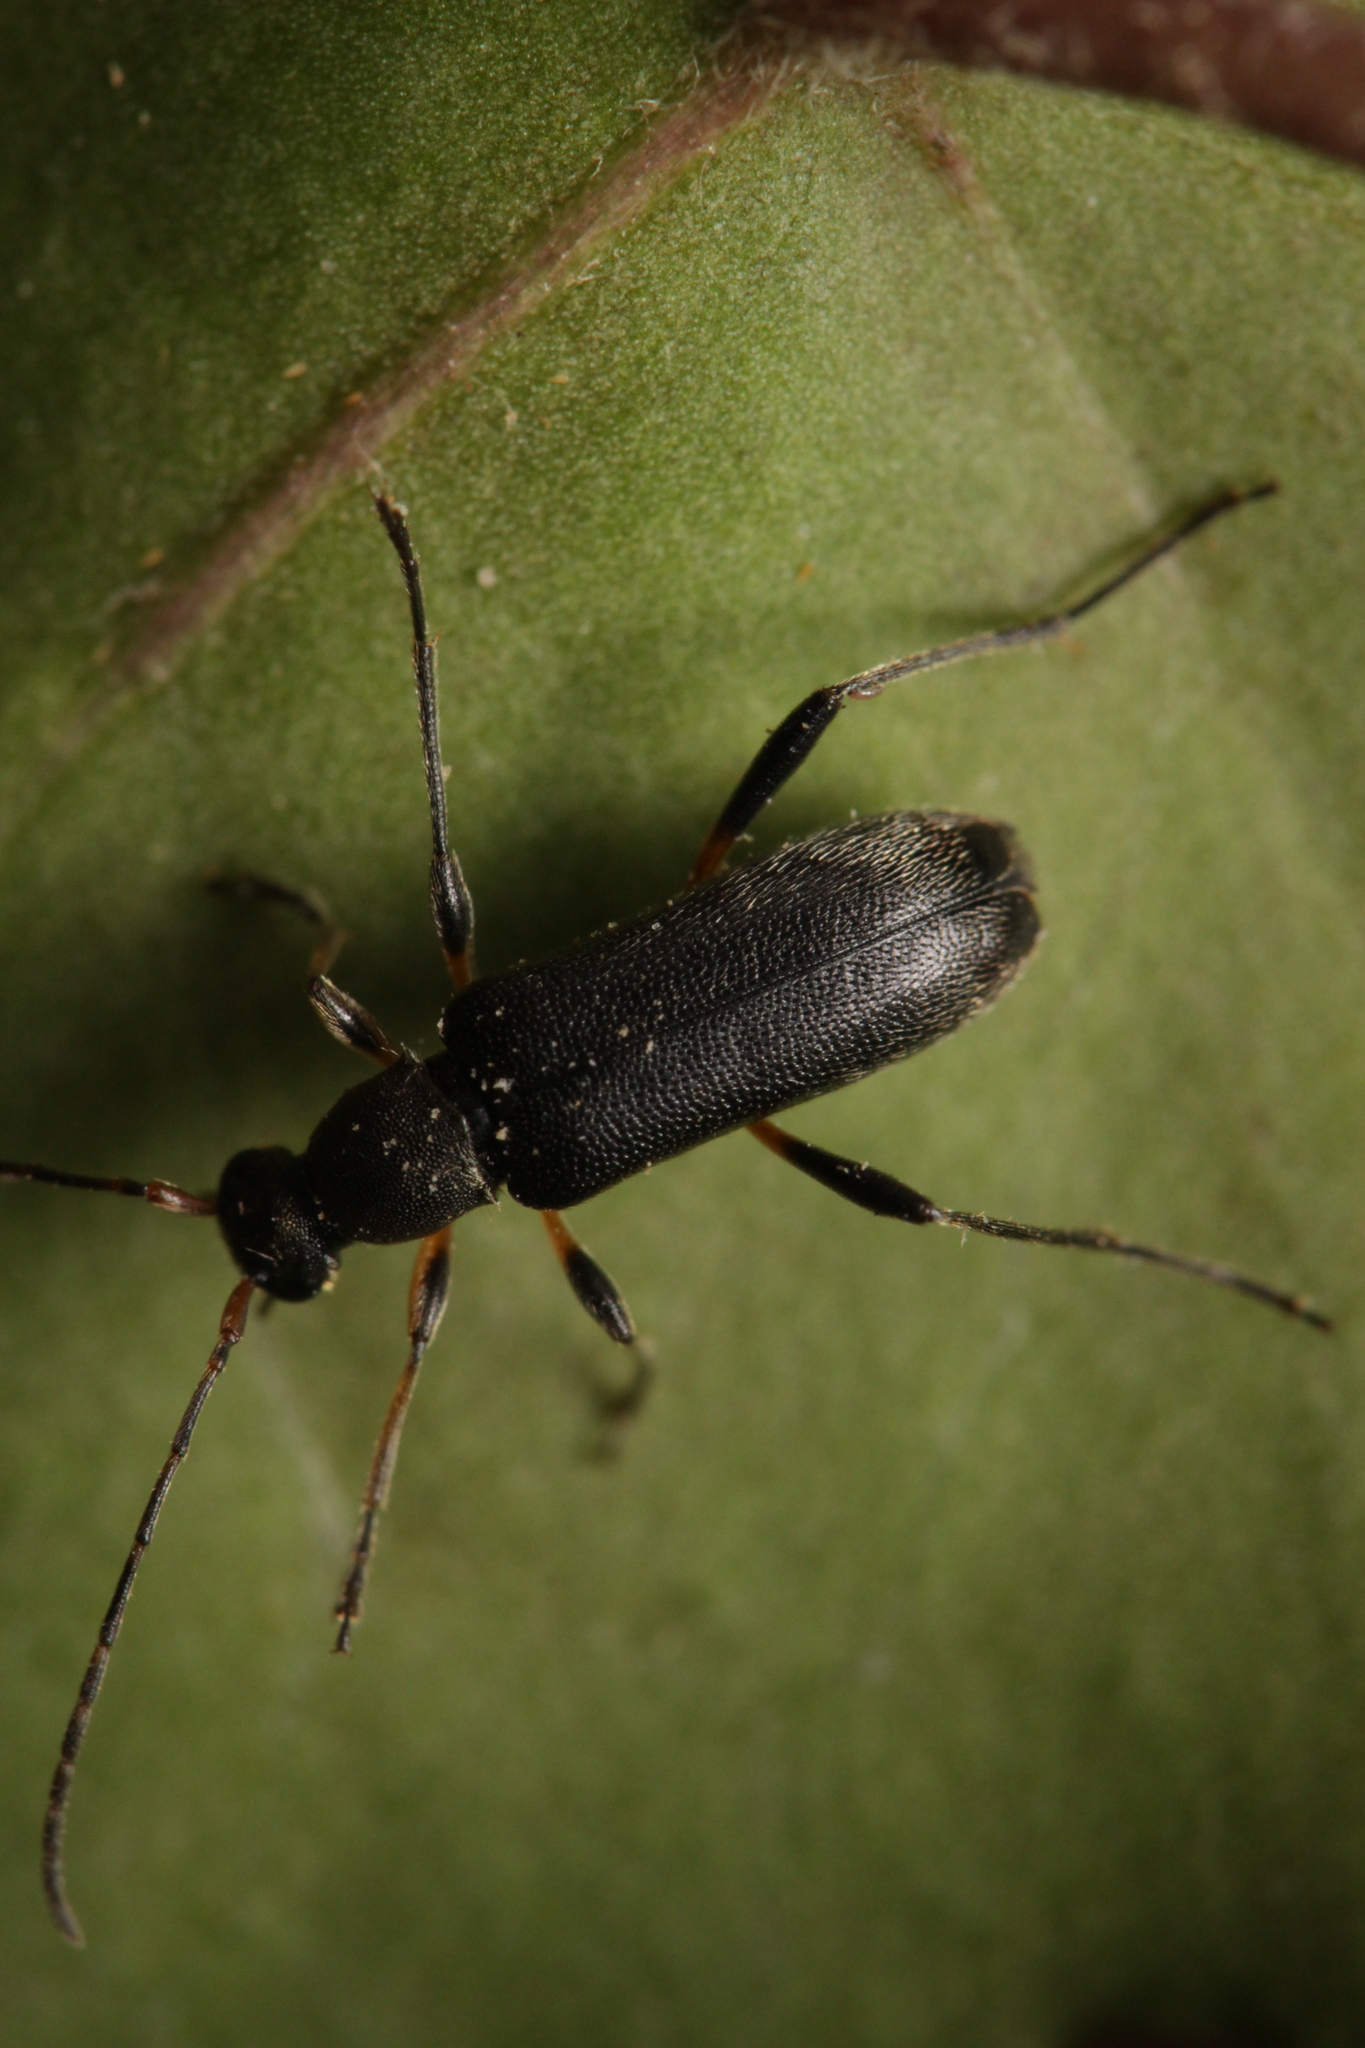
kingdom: Animalia
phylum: Arthropoda
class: Insecta
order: Coleoptera
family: Cerambycidae
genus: Grammoptera
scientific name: Grammoptera ruficornis
